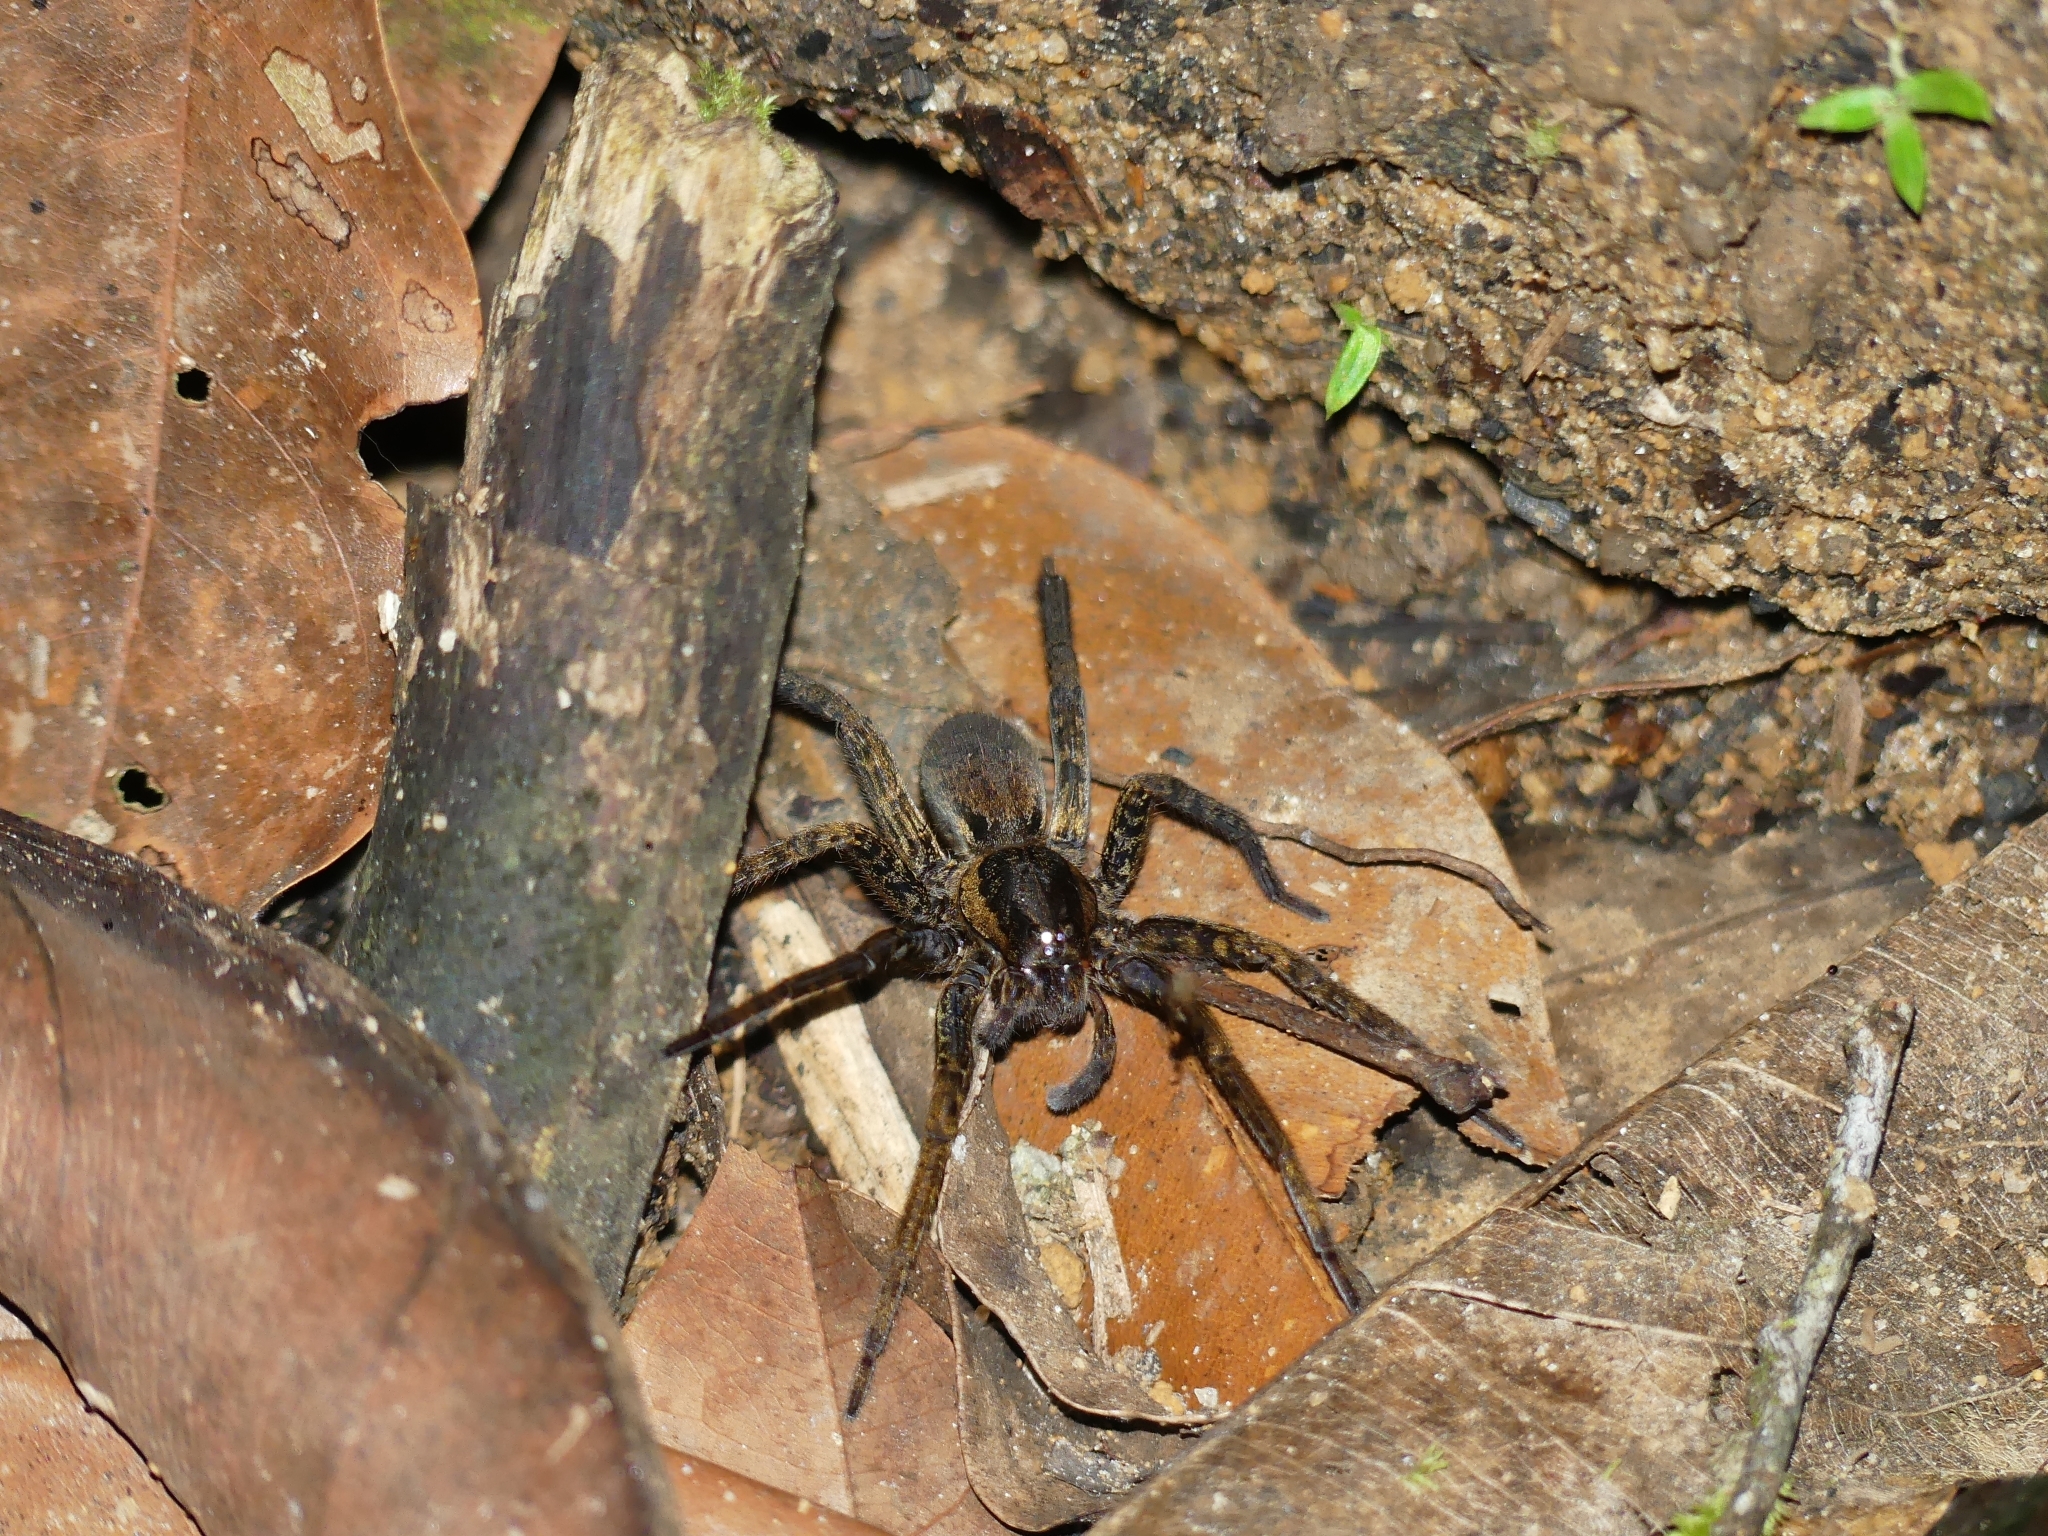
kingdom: Animalia
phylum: Arthropoda
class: Arachnida
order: Araneae
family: Ctenidae
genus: Ancylometes
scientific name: Ancylometes
